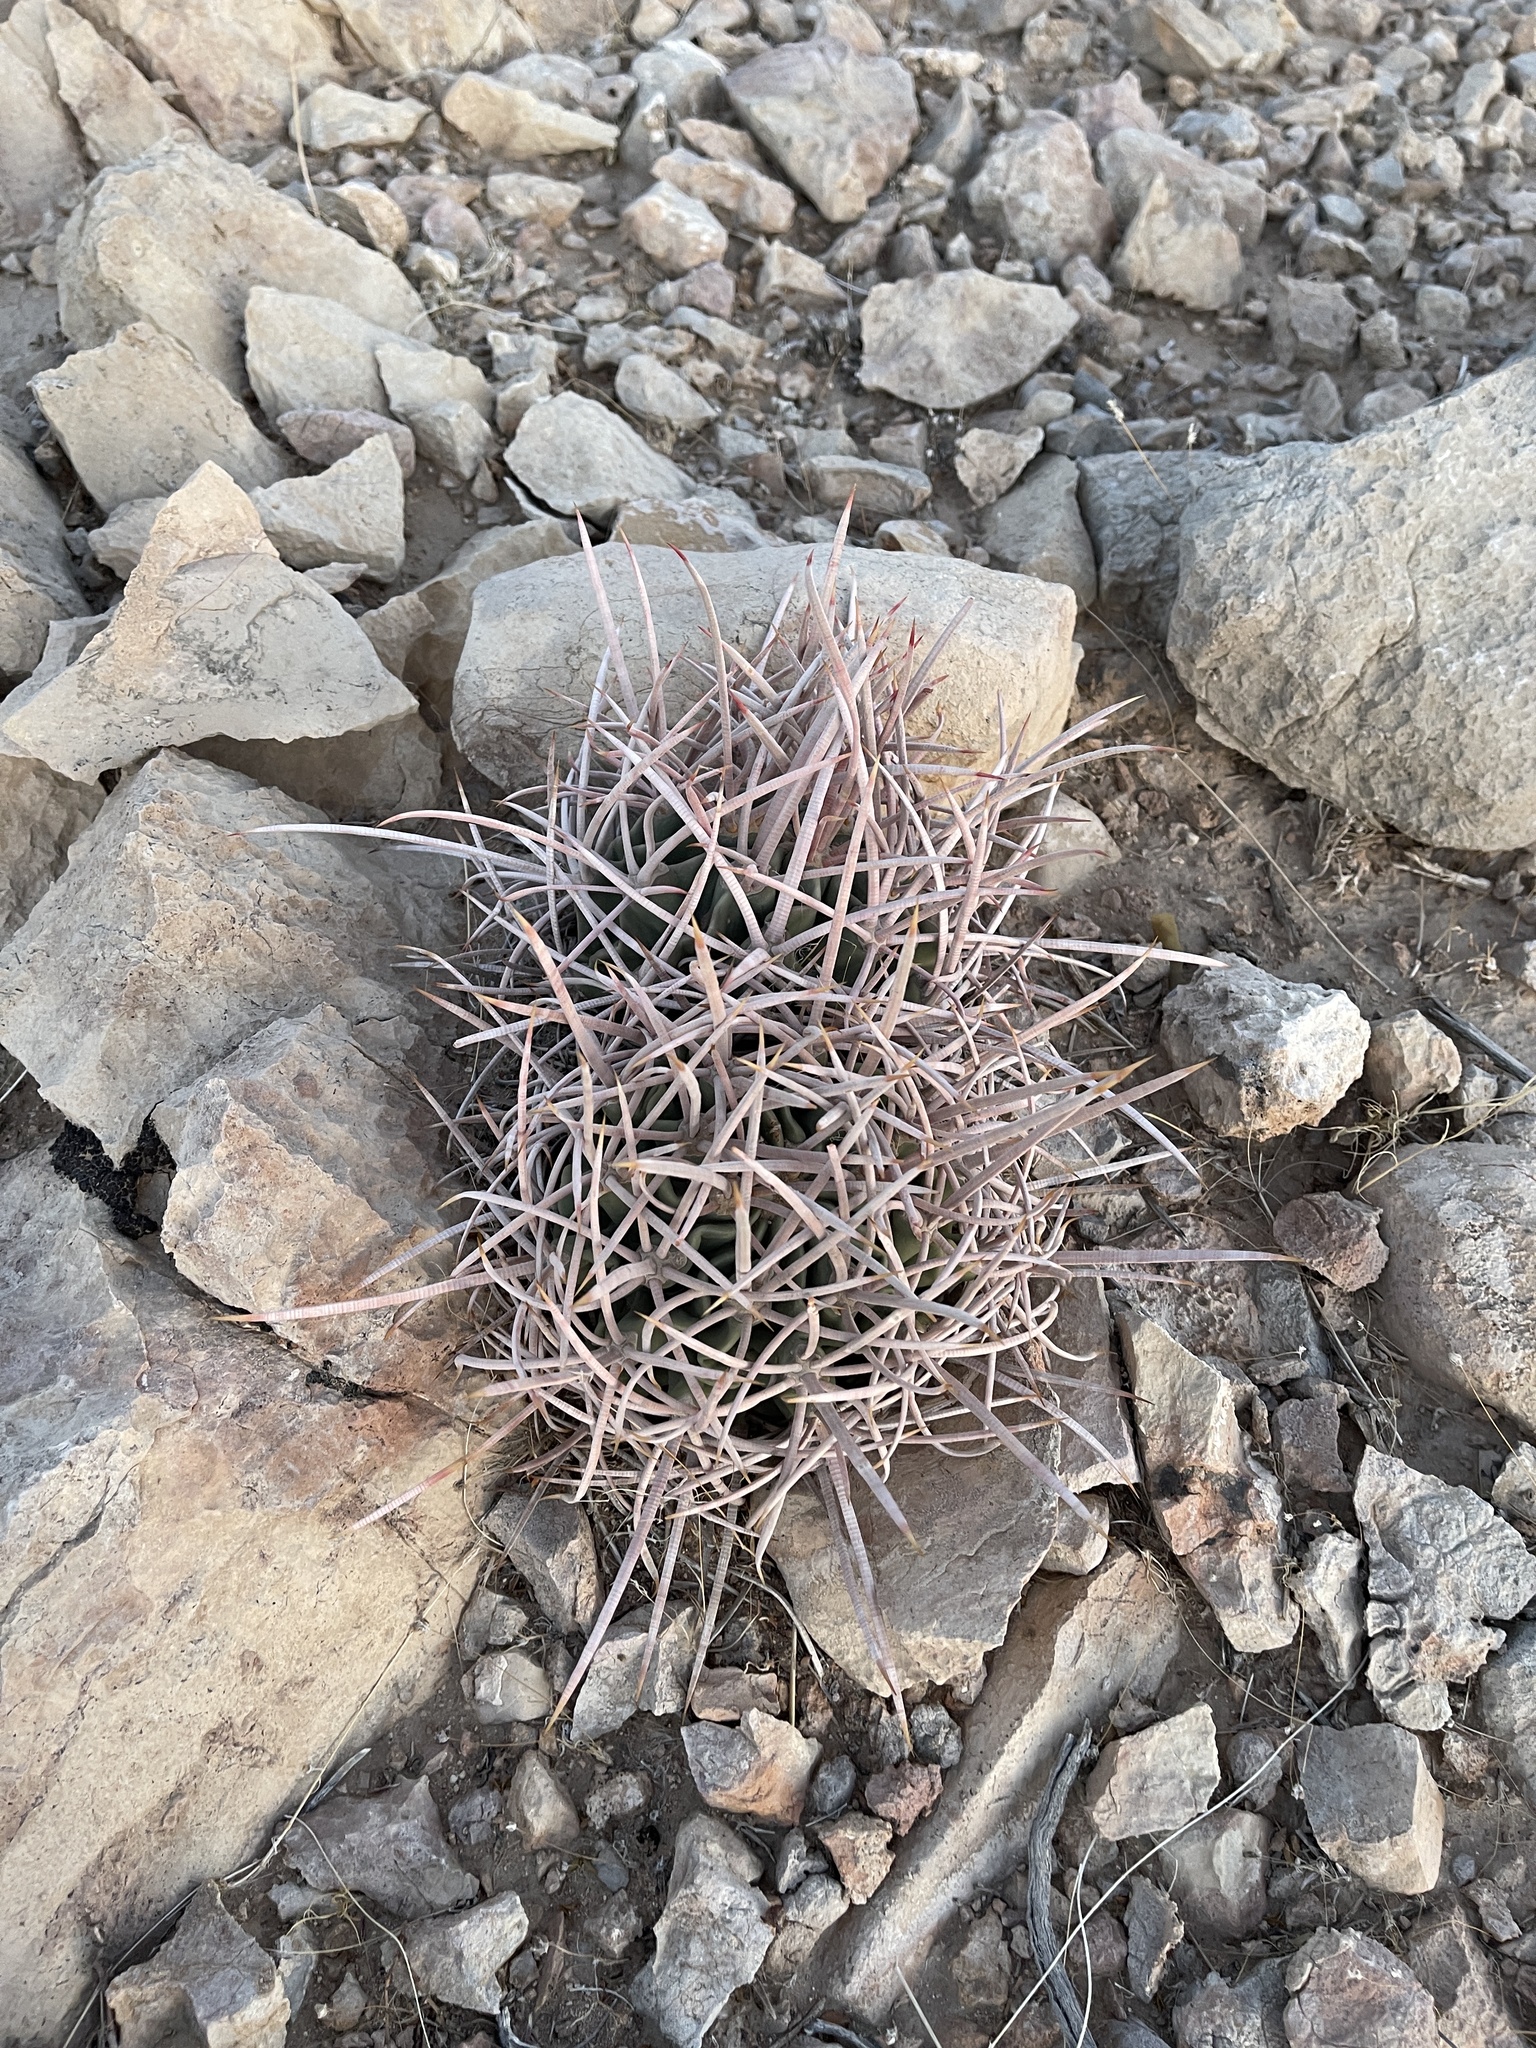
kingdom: Plantae
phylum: Tracheophyta
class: Magnoliopsida
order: Caryophyllales
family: Cactaceae
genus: Echinocactus
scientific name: Echinocactus polycephalus
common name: Cottontop cactus
